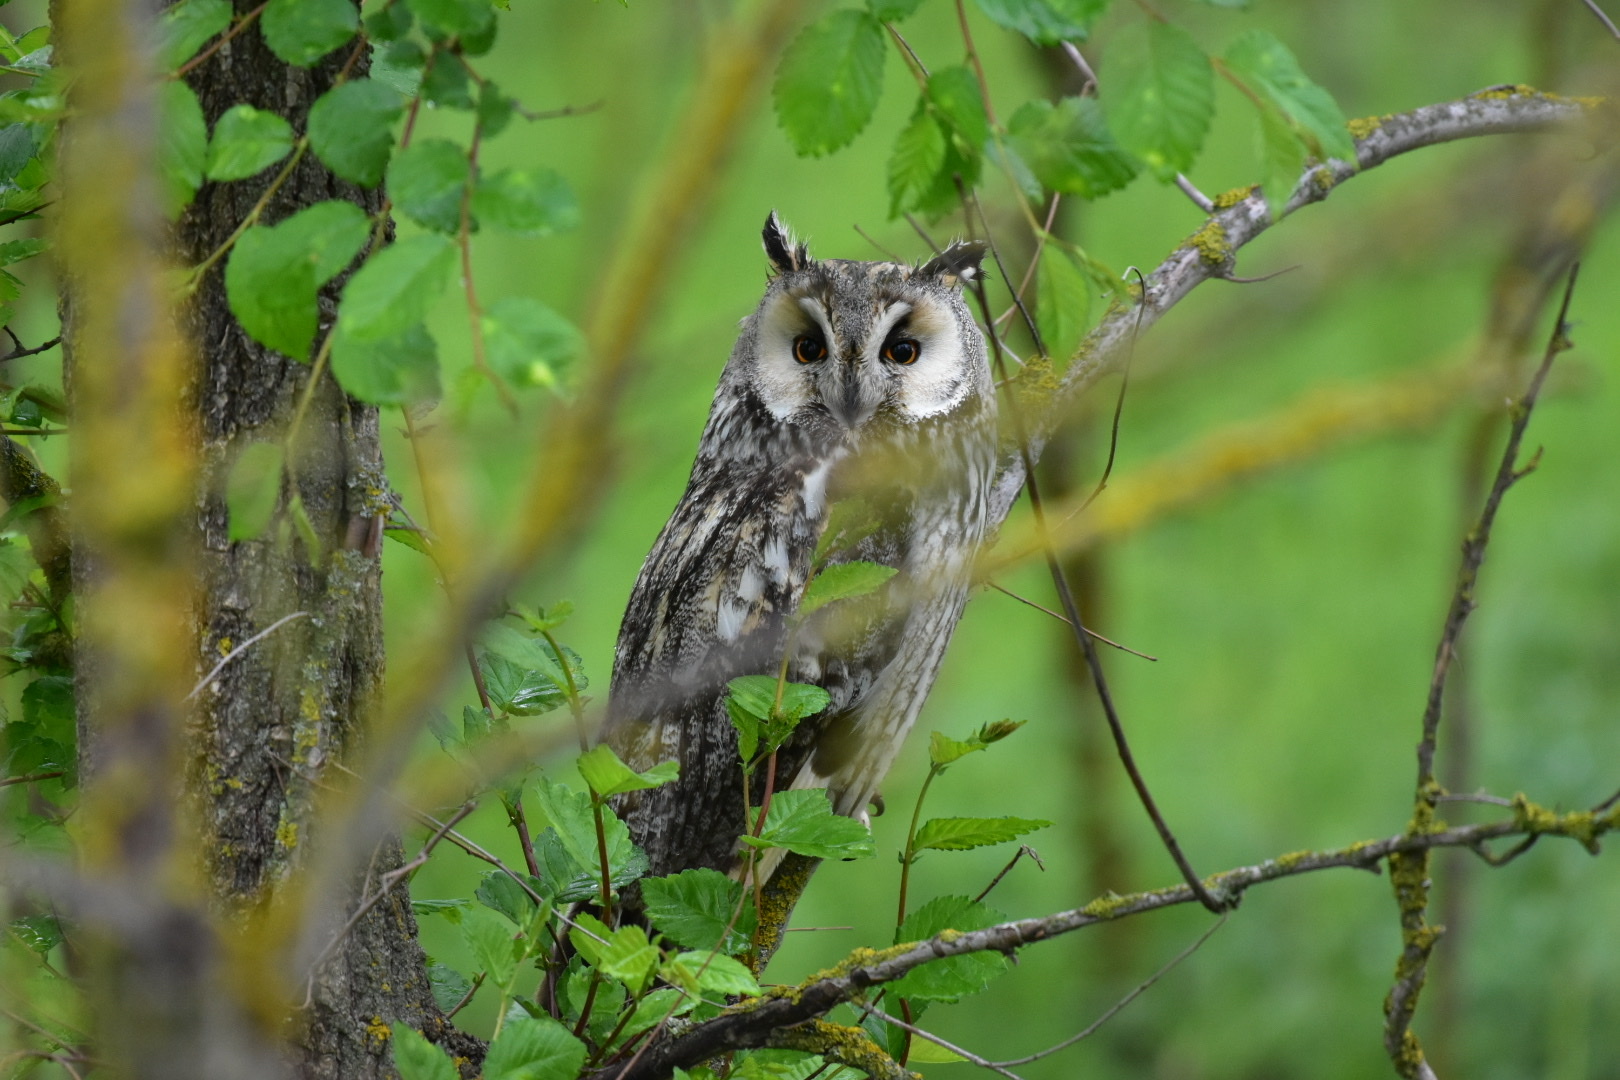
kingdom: Animalia
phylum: Chordata
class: Aves
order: Strigiformes
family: Strigidae
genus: Asio
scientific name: Asio otus
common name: Long-eared owl
